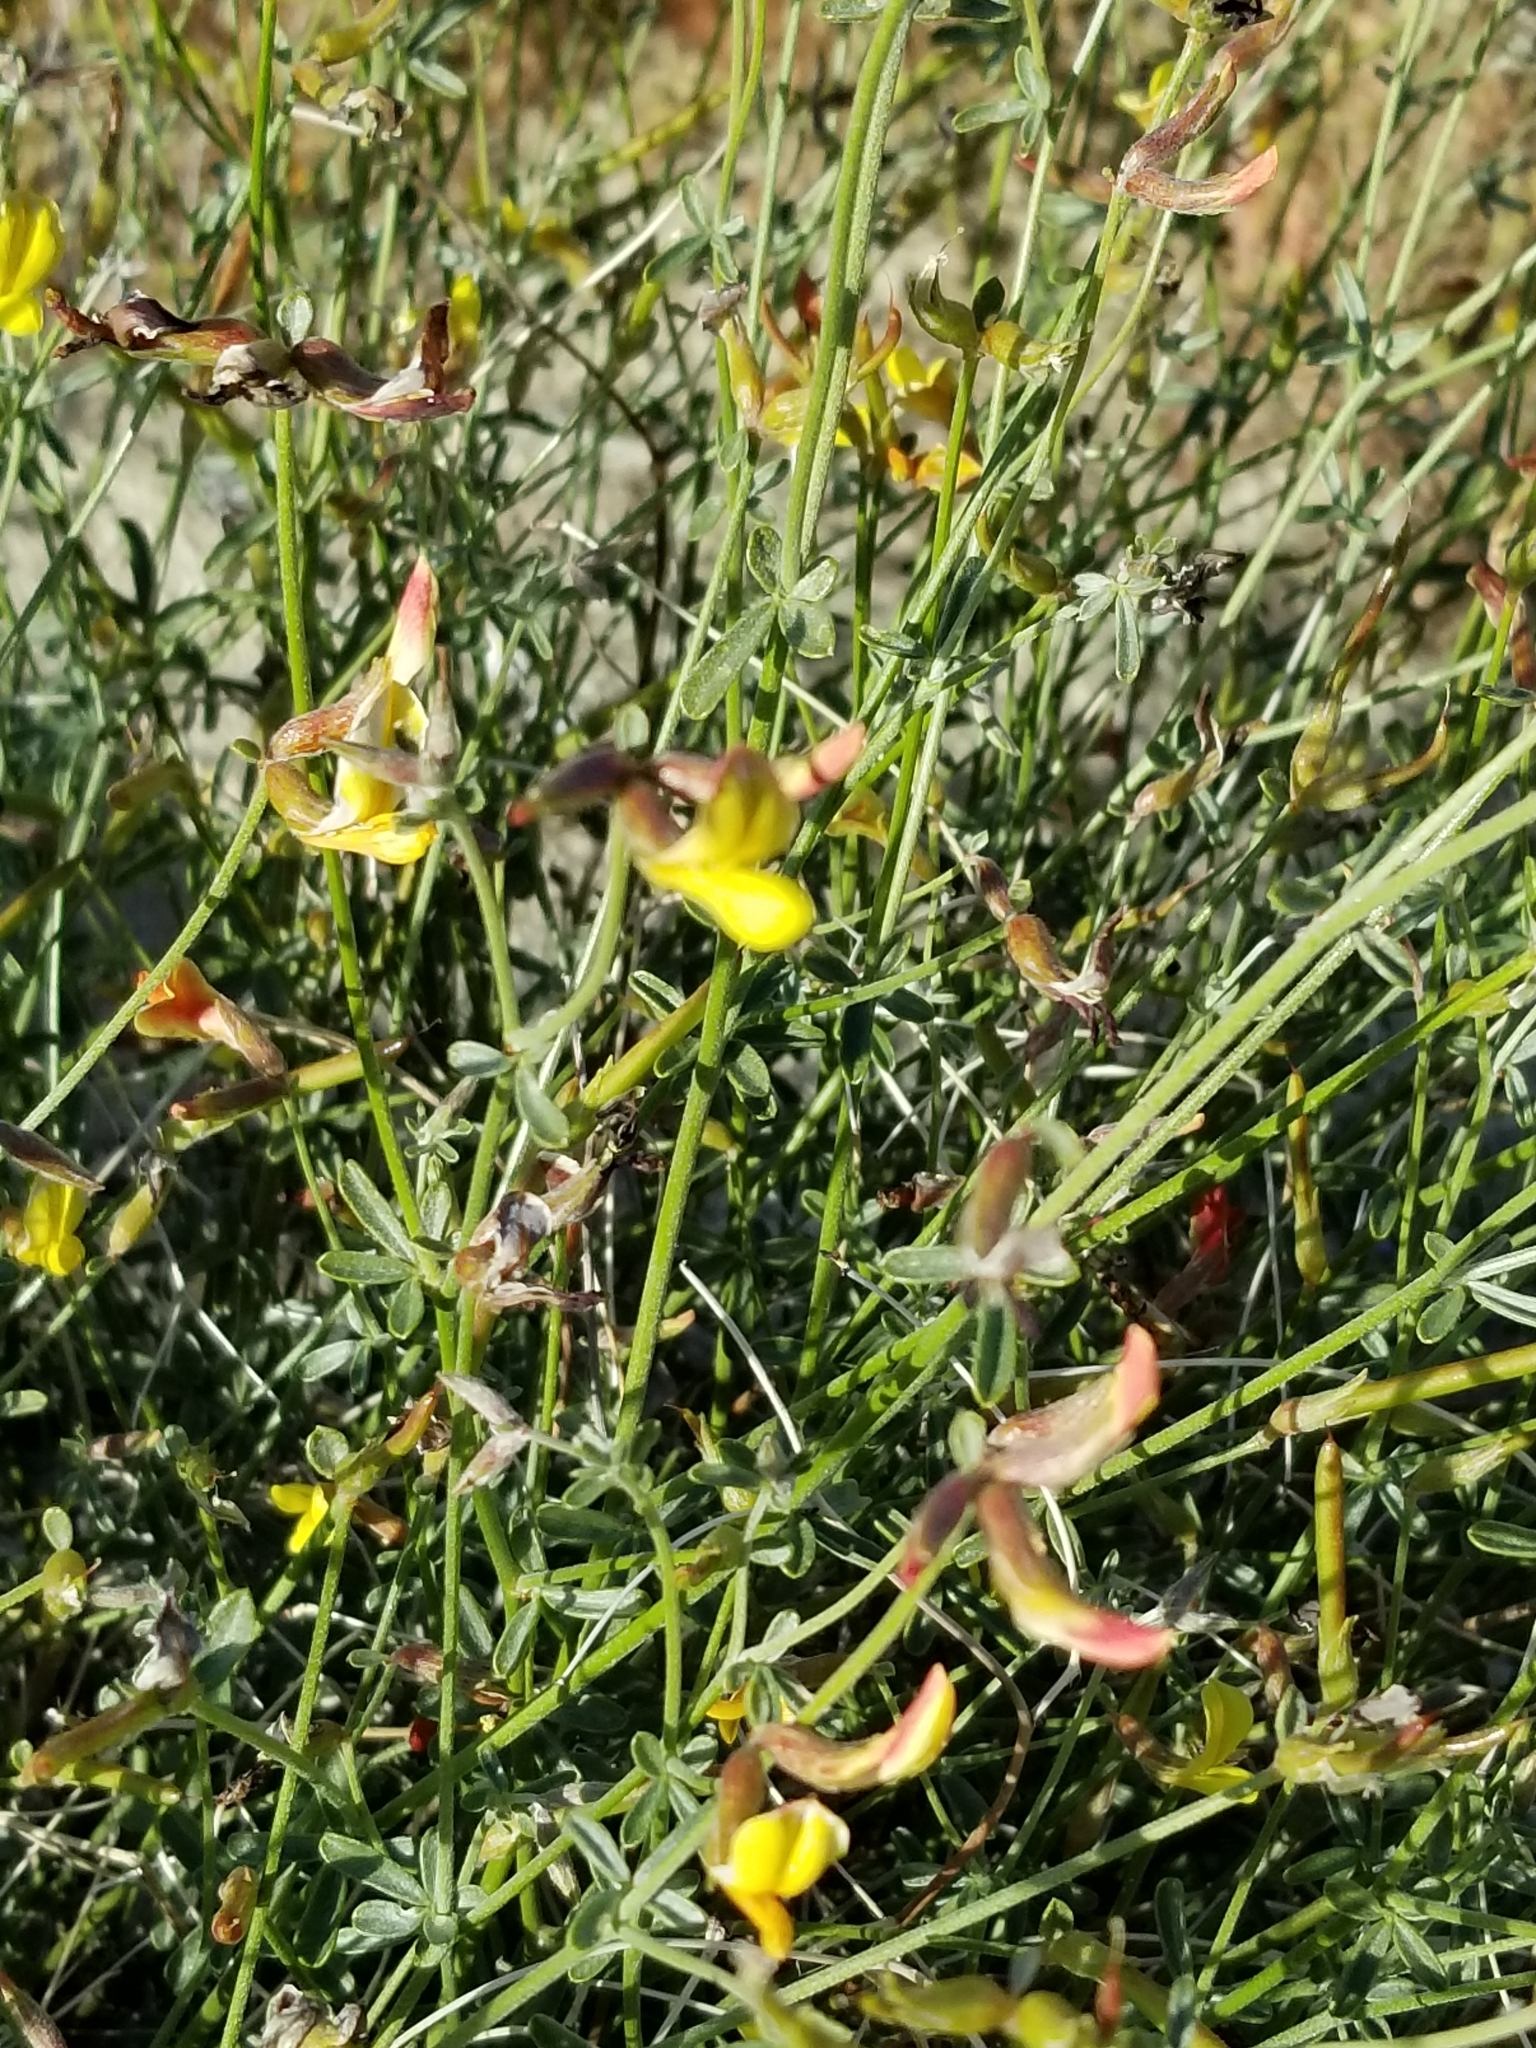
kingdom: Plantae
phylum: Tracheophyta
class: Magnoliopsida
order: Fabales
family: Fabaceae
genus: Acmispon
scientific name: Acmispon rigidus
